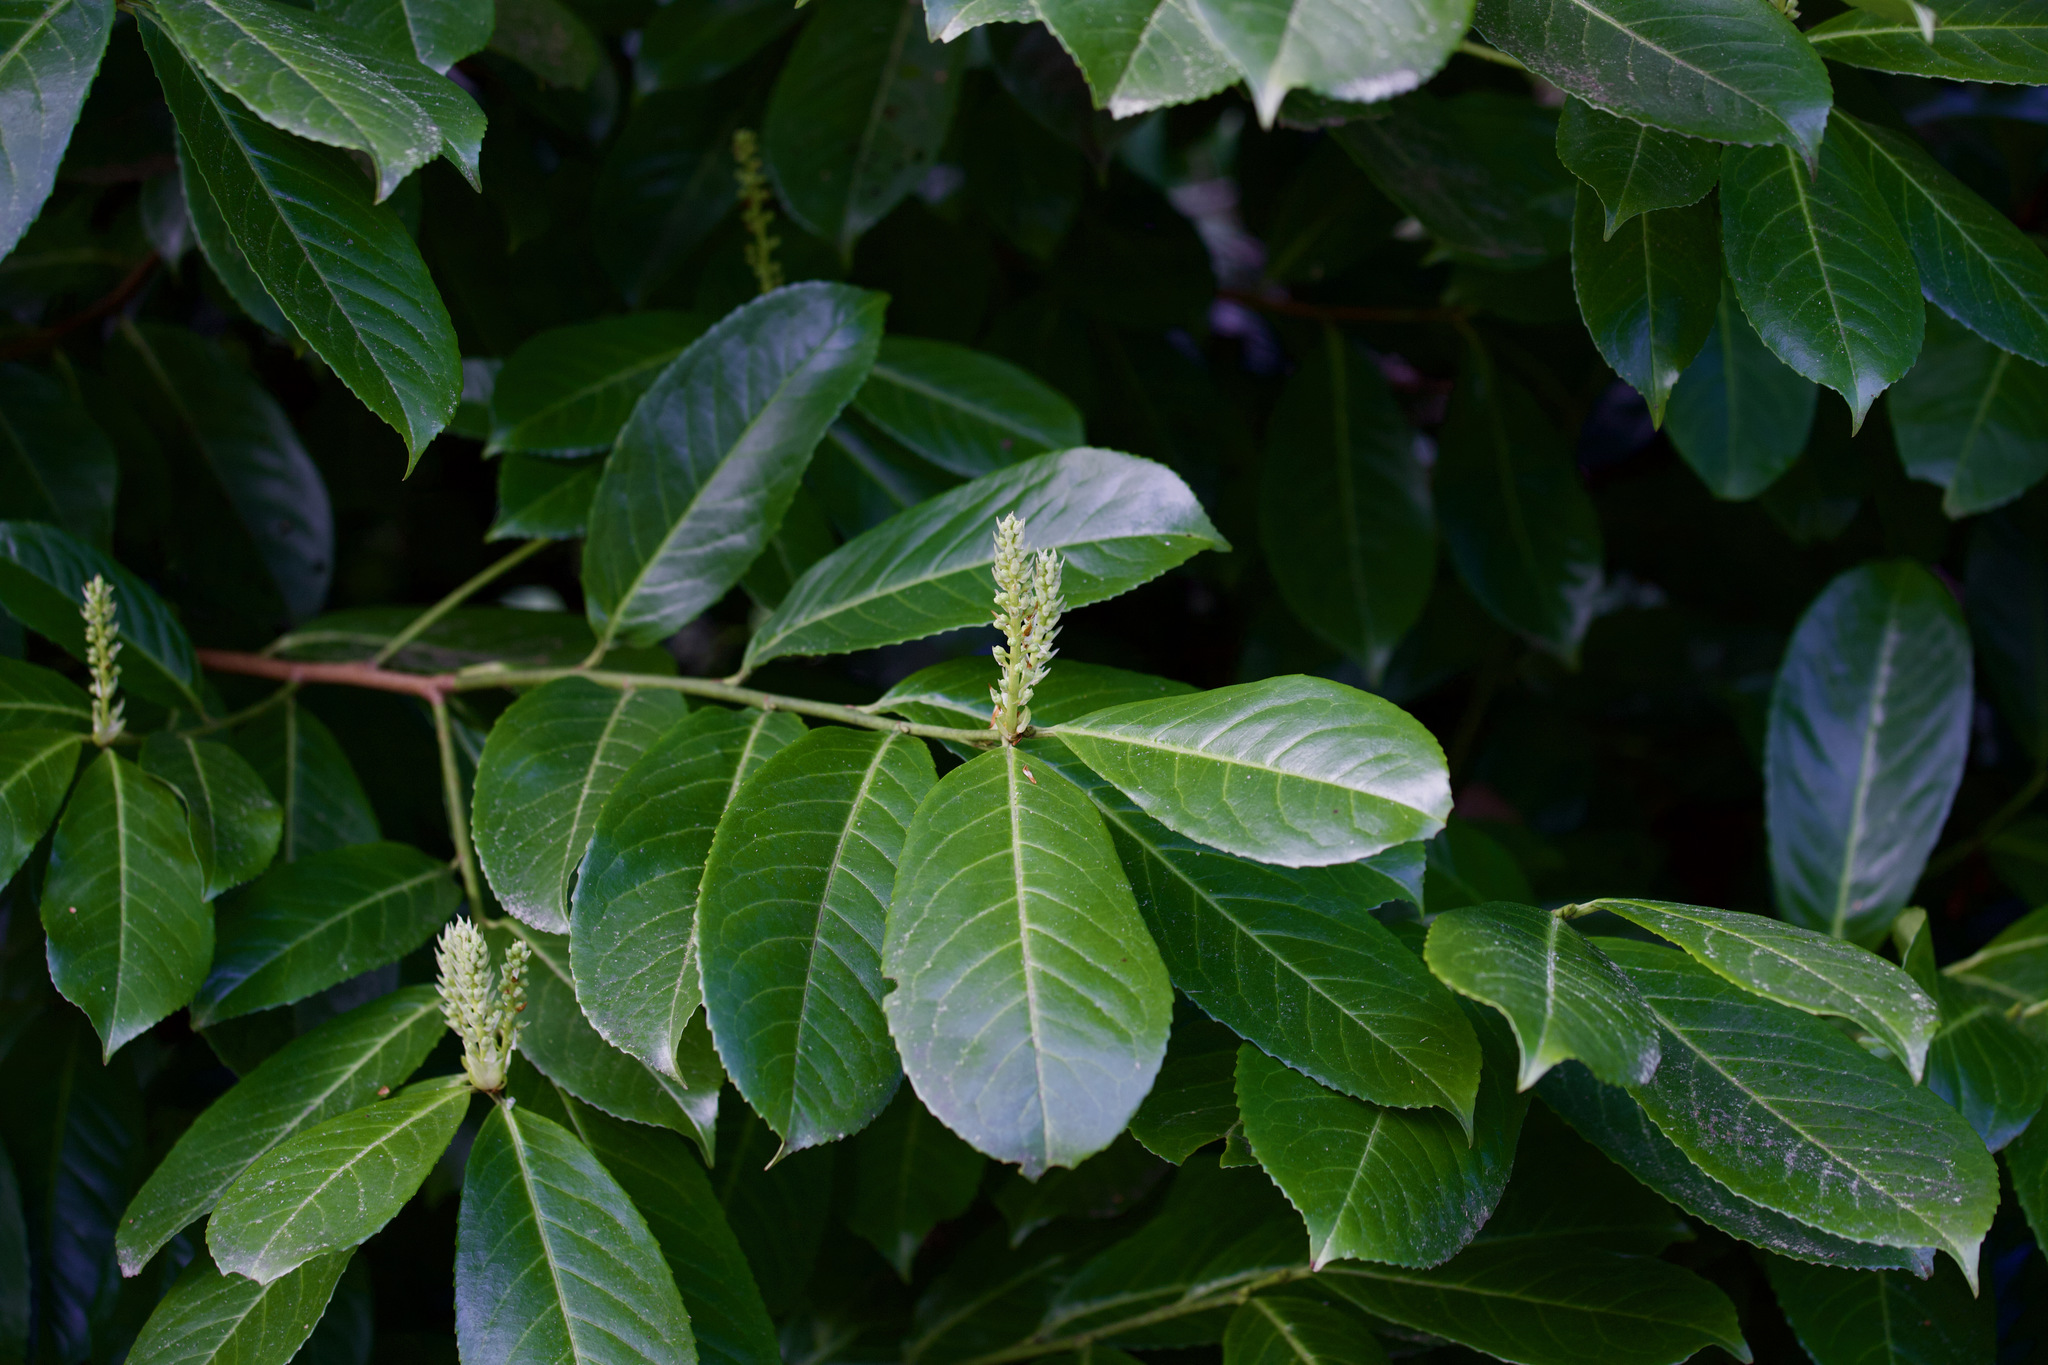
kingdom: Plantae
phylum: Tracheophyta
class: Magnoliopsida
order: Rosales
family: Rosaceae
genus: Prunus
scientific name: Prunus laurocerasus
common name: Cherry laurel
